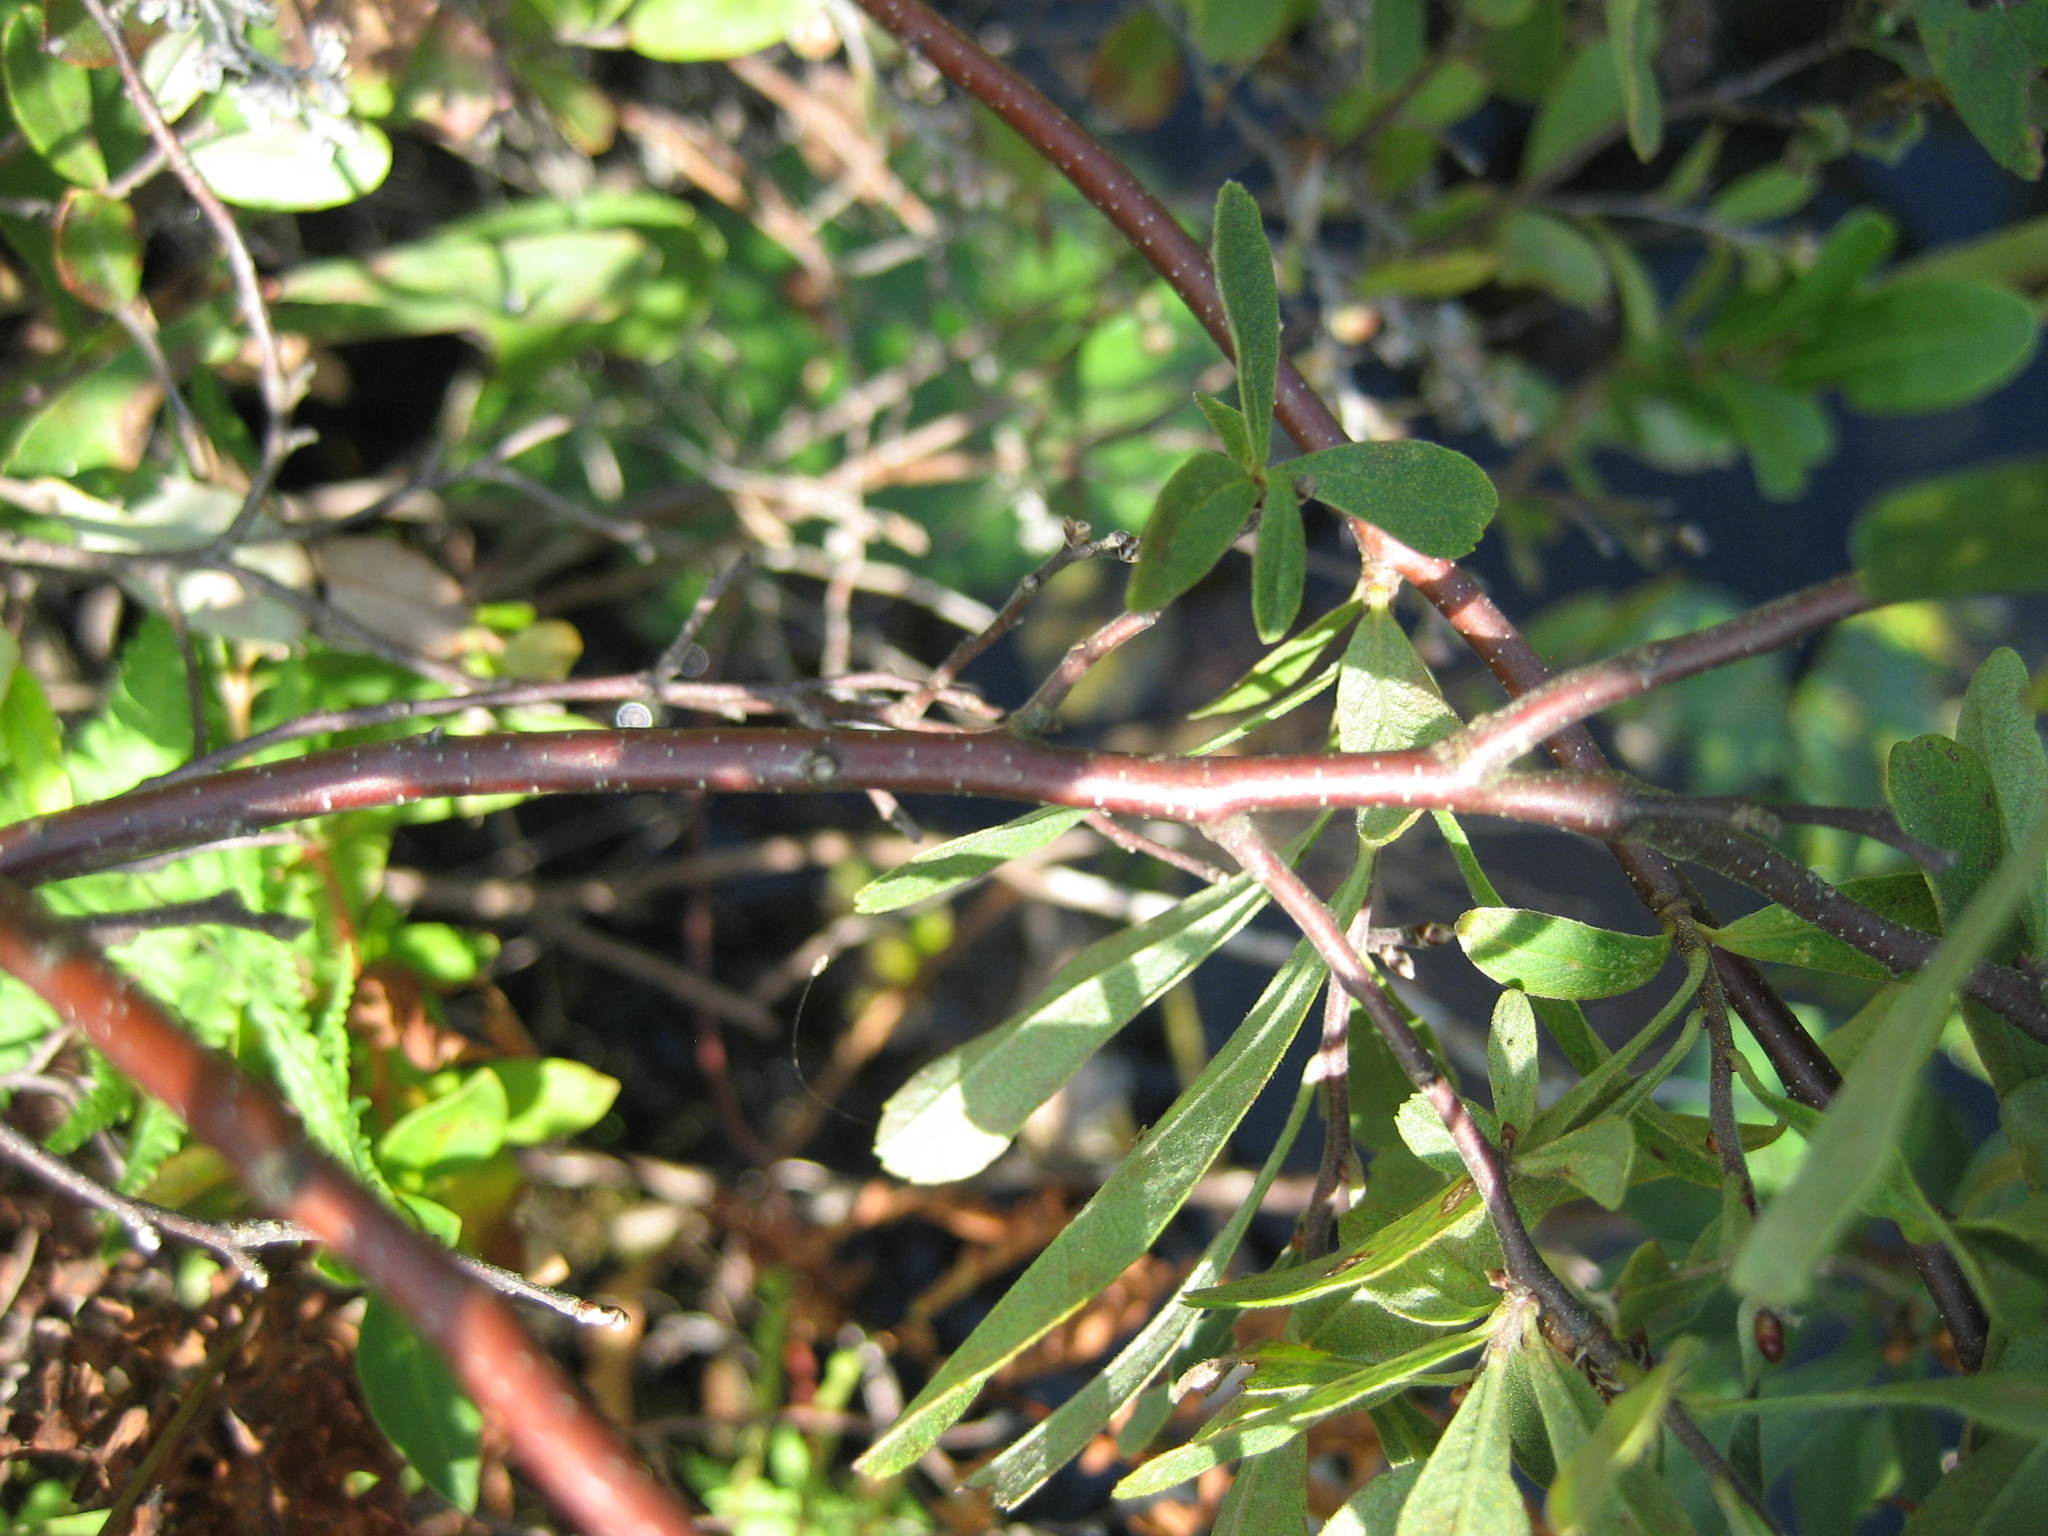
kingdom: Plantae
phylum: Tracheophyta
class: Magnoliopsida
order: Fagales
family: Myricaceae
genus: Myrica
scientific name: Myrica gale
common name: Sweet gale
